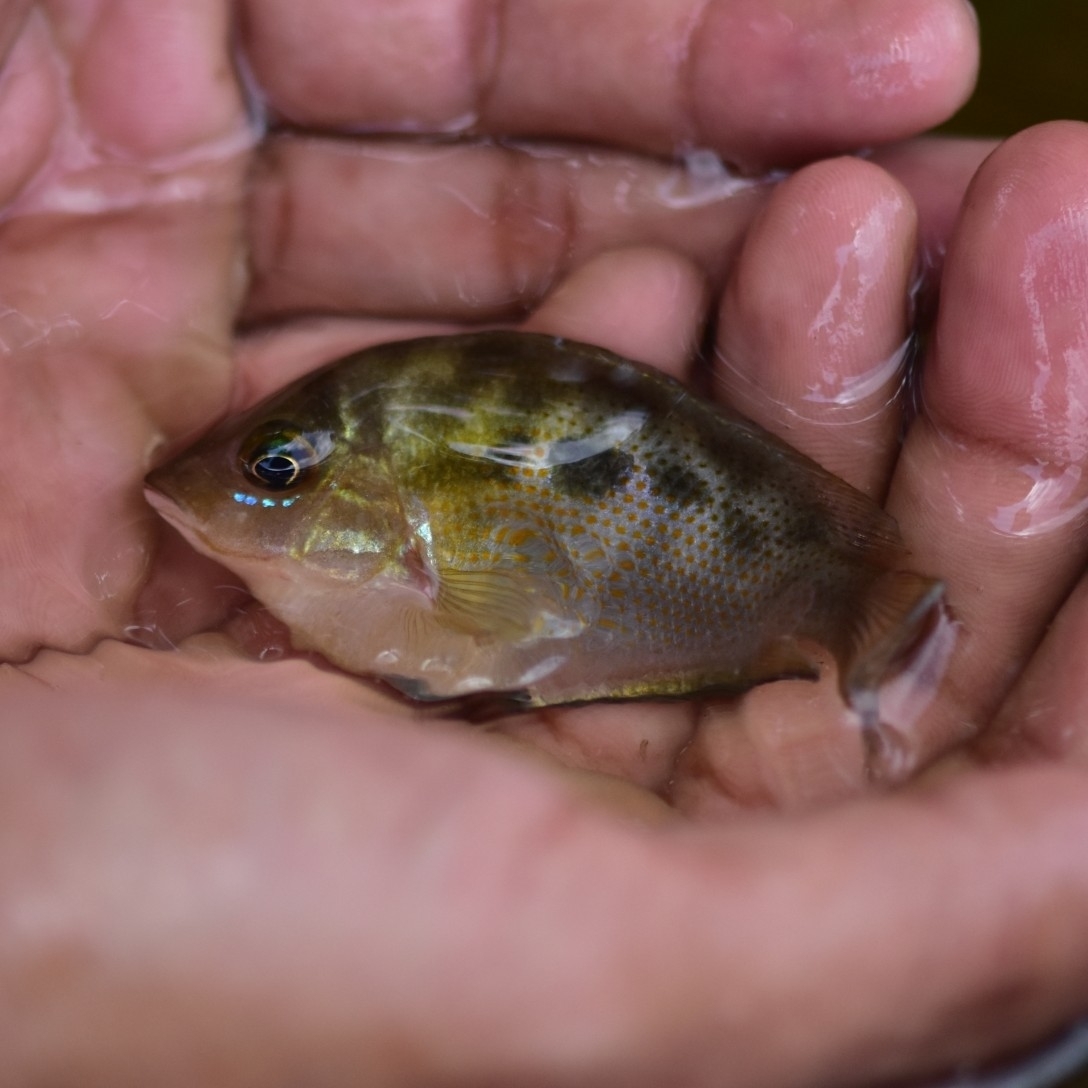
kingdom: Animalia
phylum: Chordata
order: Perciformes
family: Cichlidae
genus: Etroplus
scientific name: Etroplus maculatus
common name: Orange chromide
